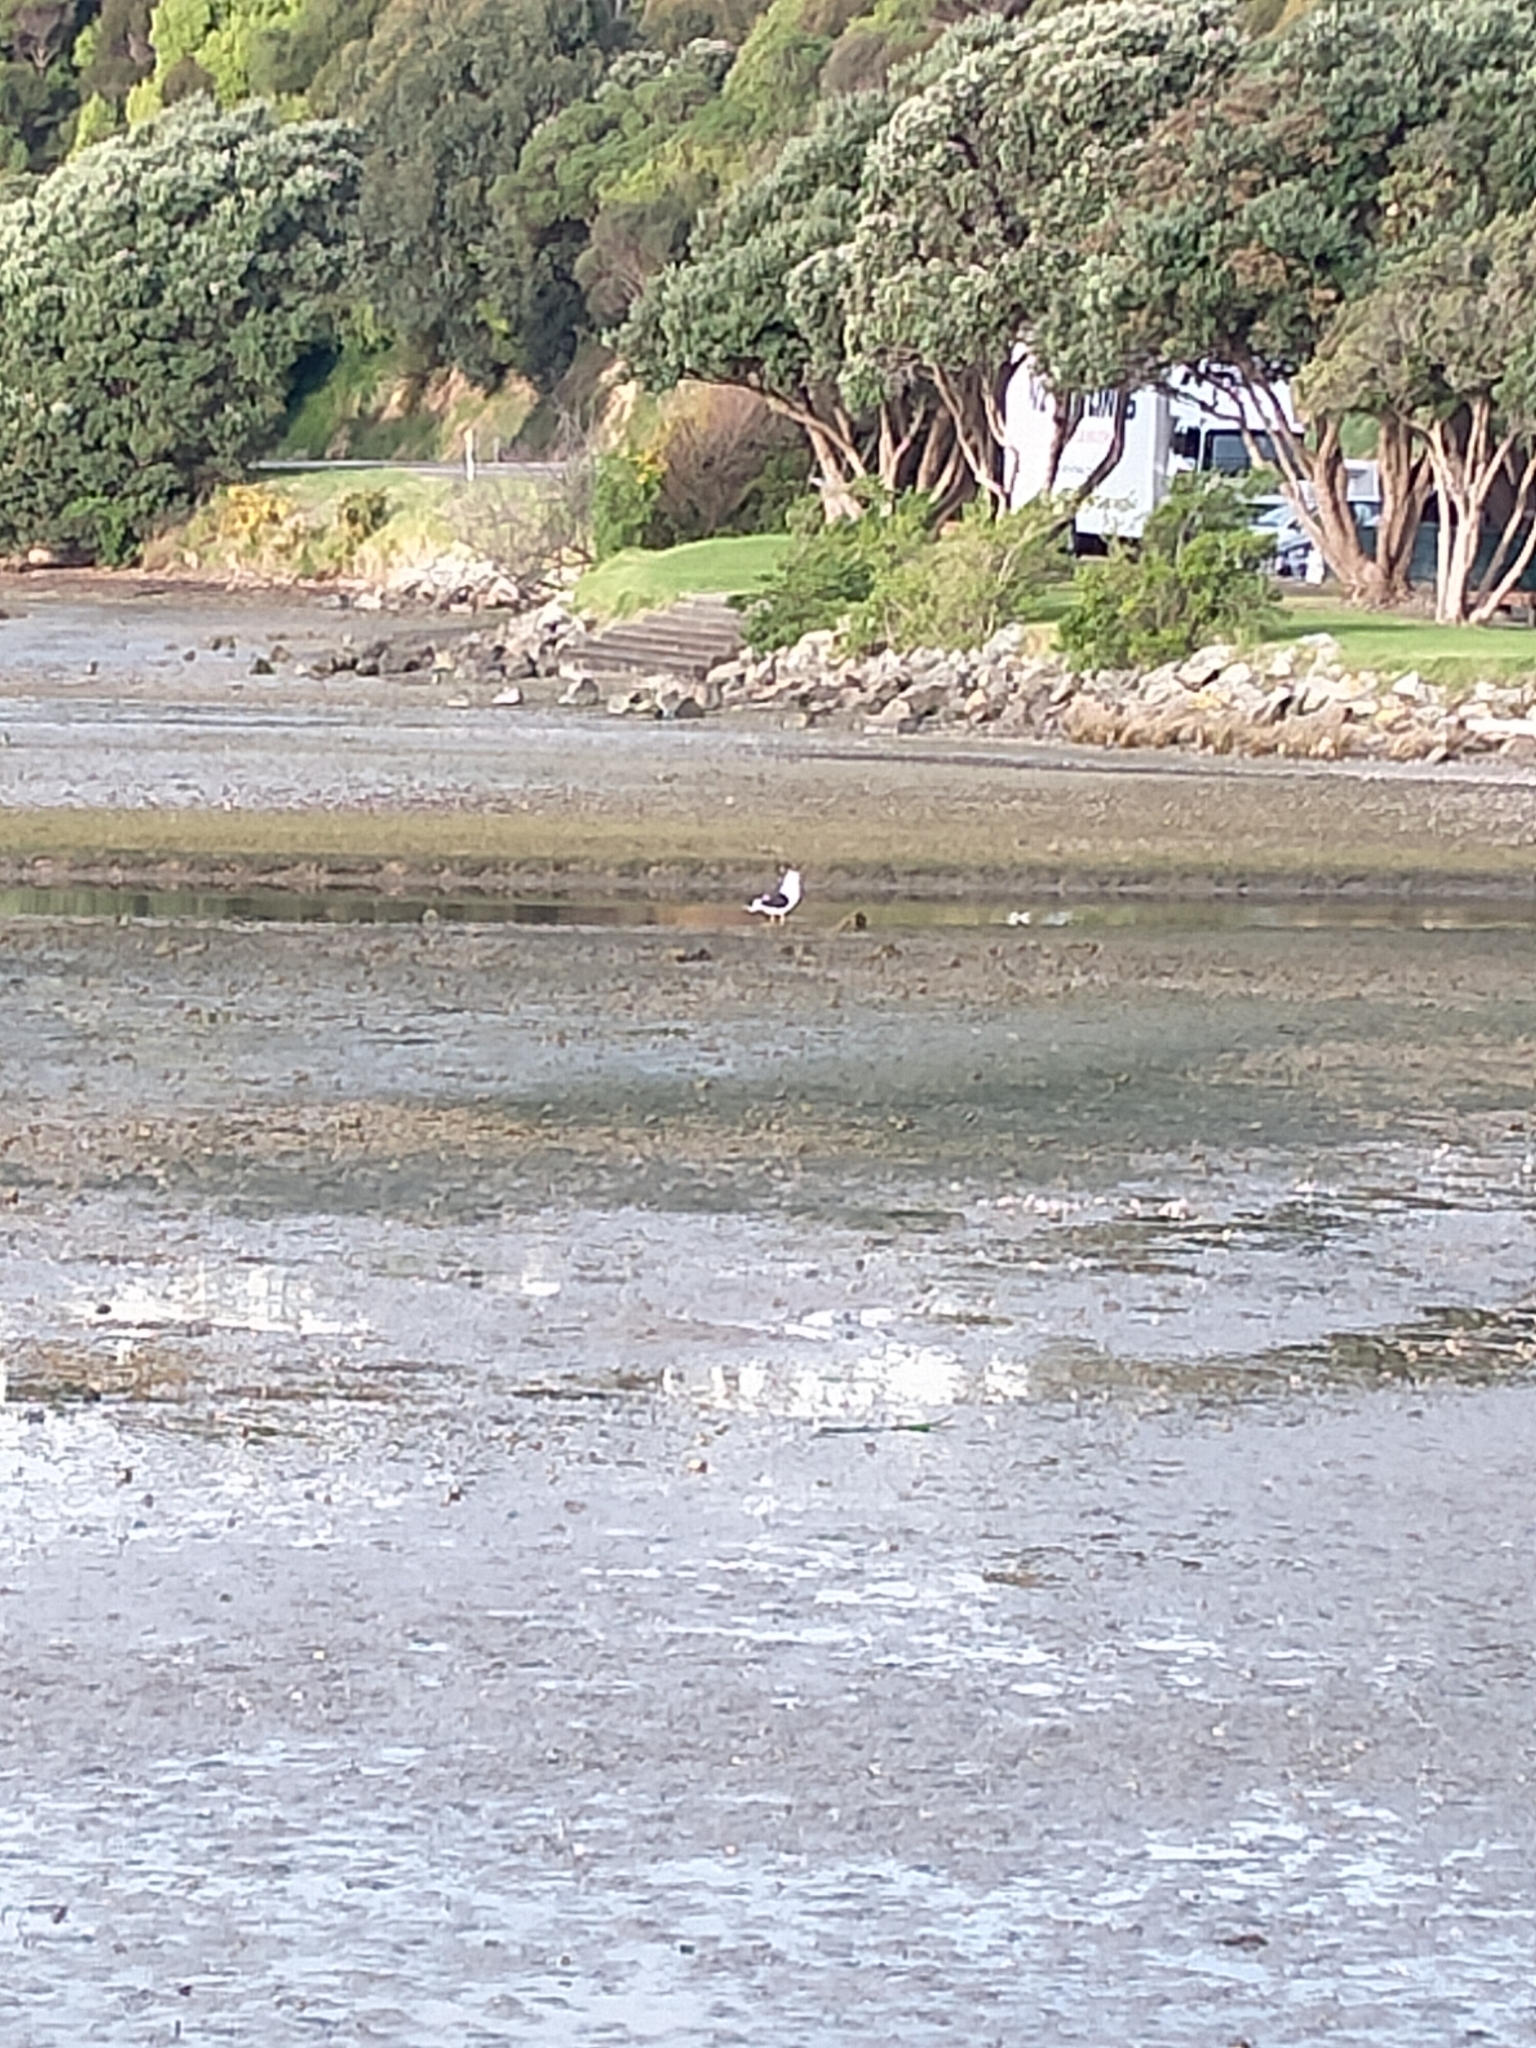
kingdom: Animalia
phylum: Chordata
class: Aves
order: Charadriiformes
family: Laridae
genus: Larus
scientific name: Larus dominicanus
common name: Kelp gull
